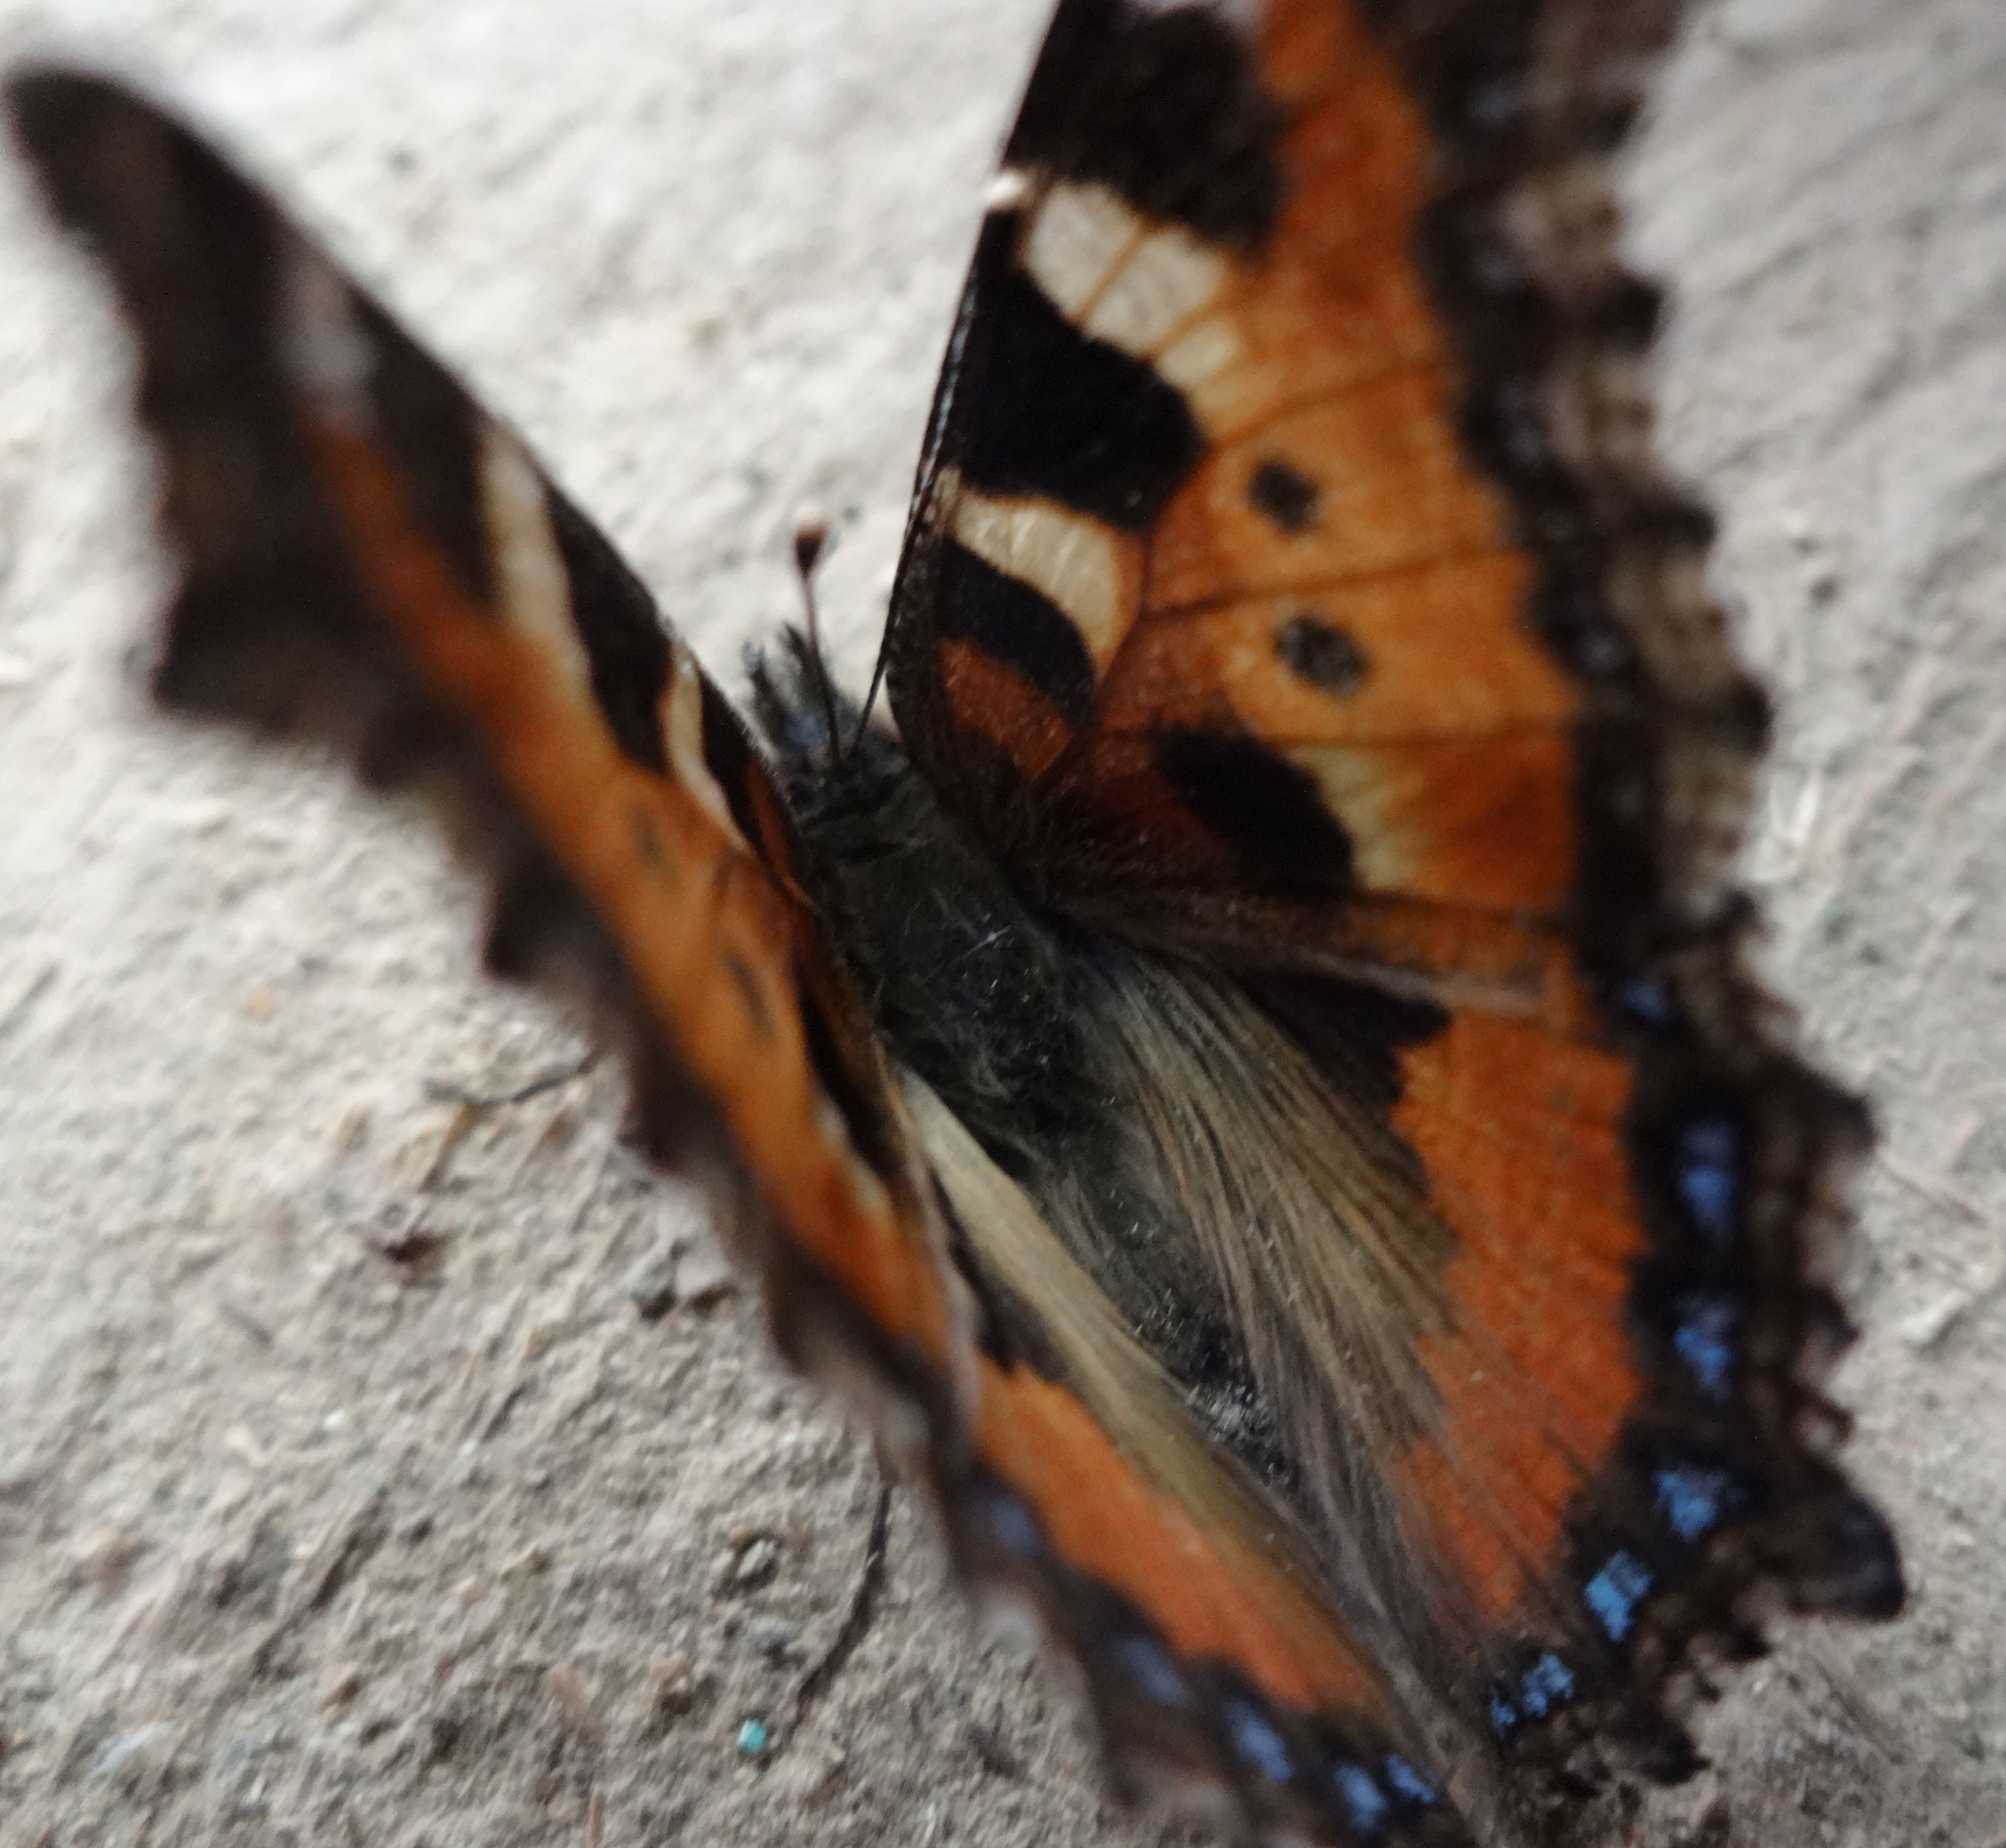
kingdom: Animalia
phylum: Arthropoda
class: Insecta
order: Lepidoptera
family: Nymphalidae
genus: Aglais
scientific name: Aglais urticae
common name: Small tortoiseshell
